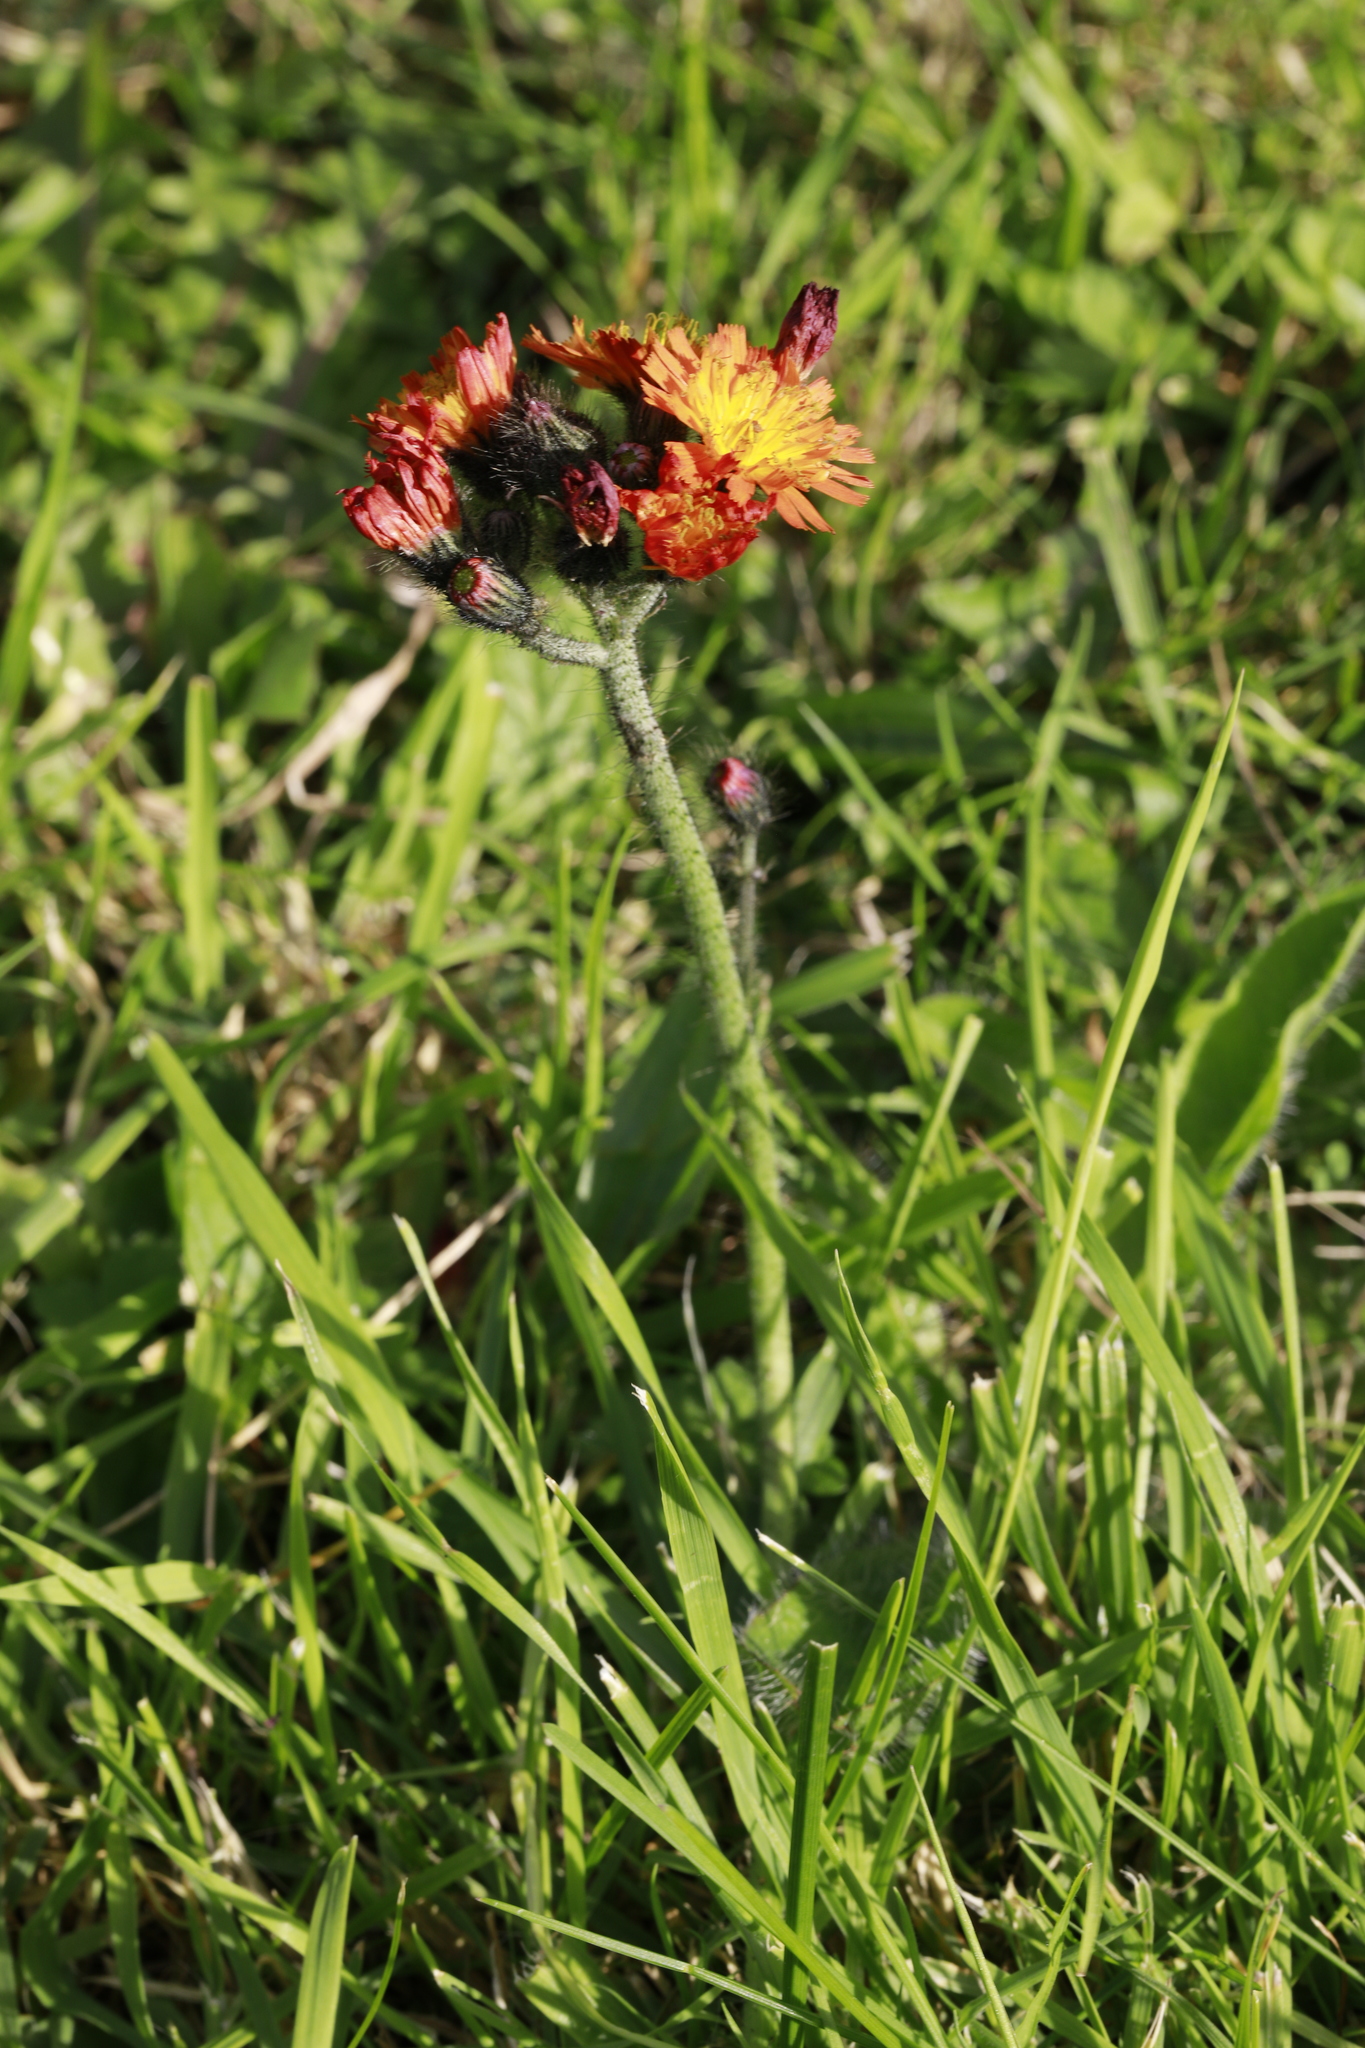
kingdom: Plantae
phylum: Tracheophyta
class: Magnoliopsida
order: Asterales
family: Asteraceae
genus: Pilosella
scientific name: Pilosella aurantiaca
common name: Fox-and-cubs
